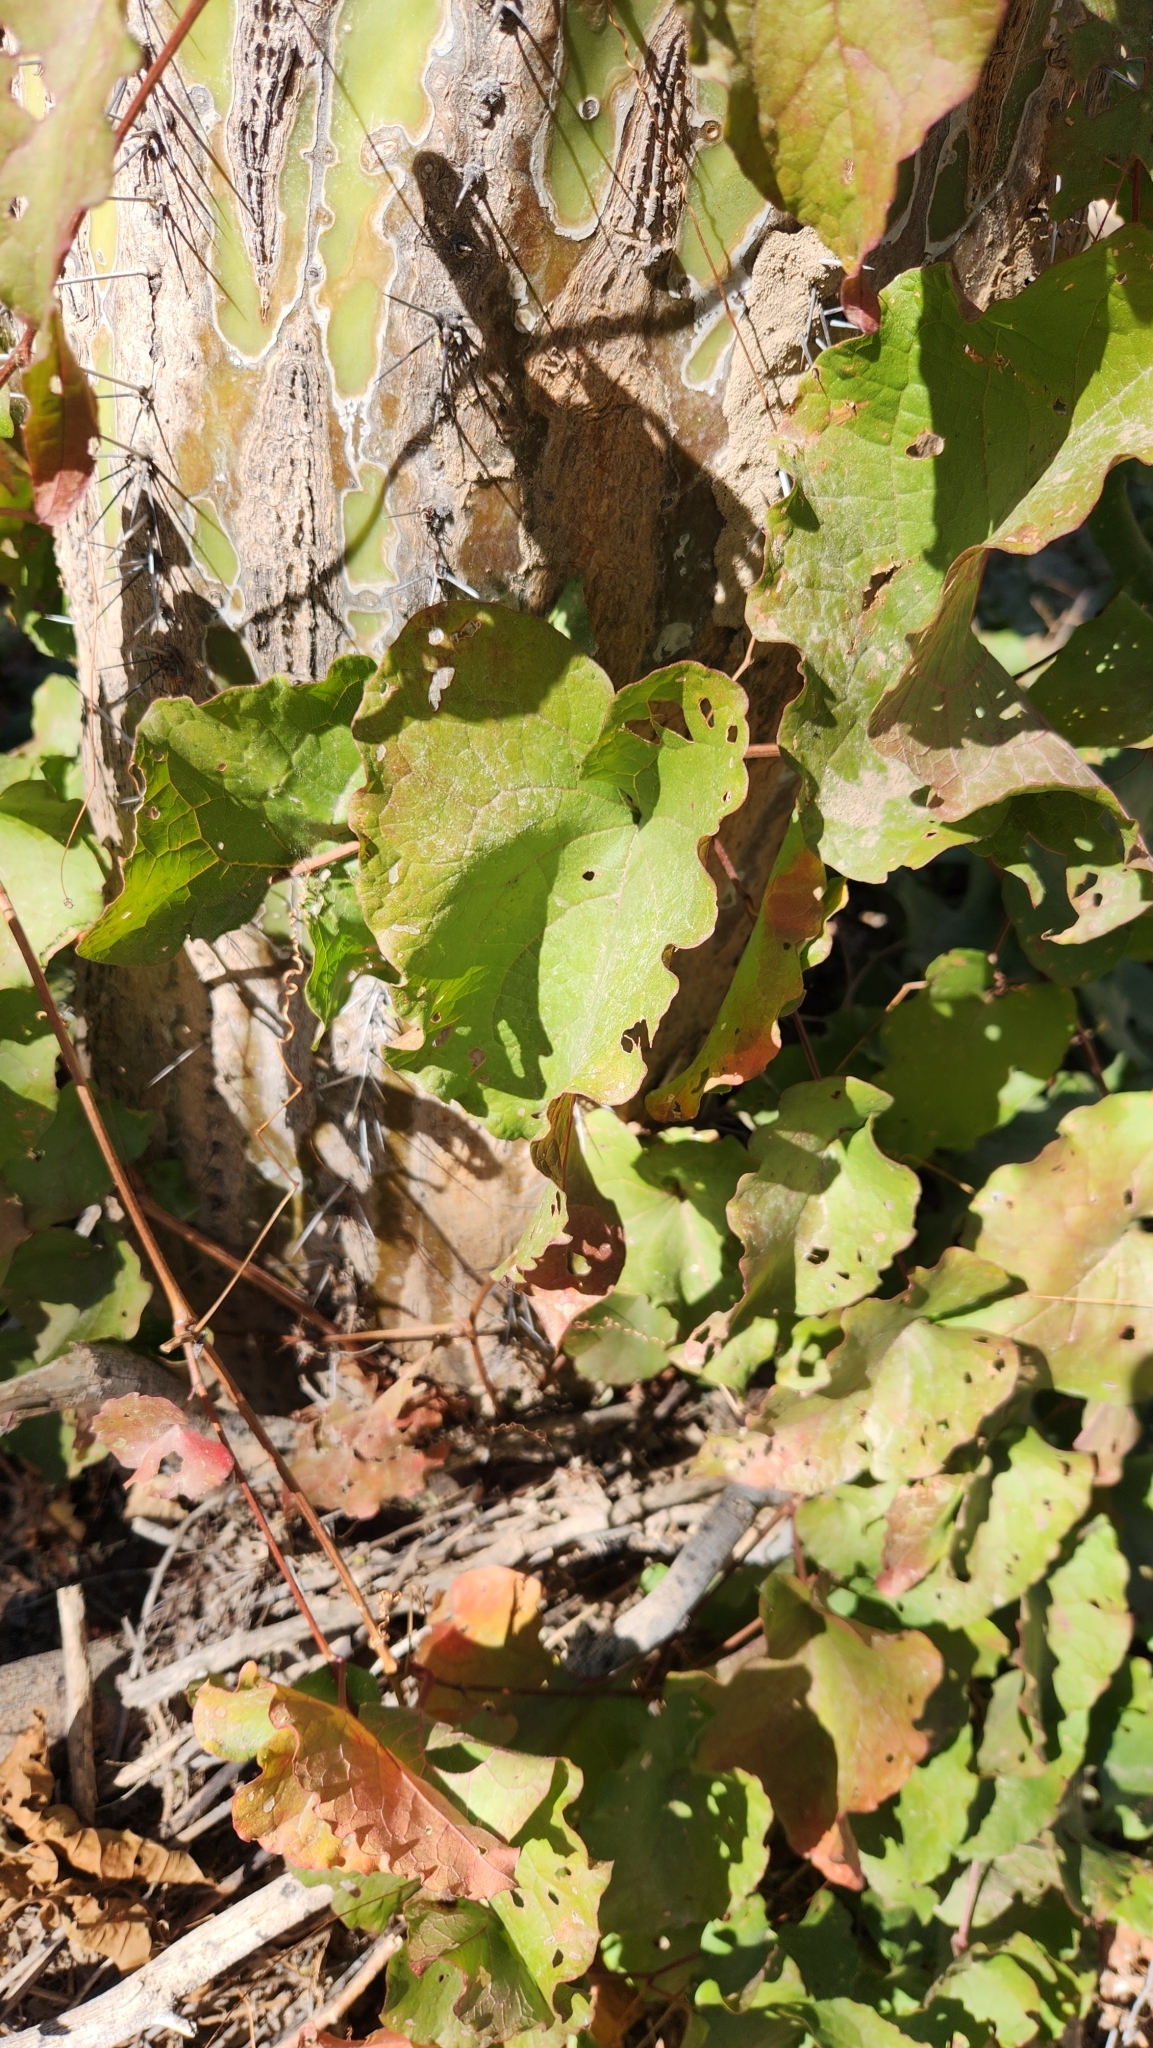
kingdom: Plantae
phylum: Tracheophyta
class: Magnoliopsida
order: Caryophyllales
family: Polygonaceae
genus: Antigonon
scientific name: Antigonon leptopus
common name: Coral vine
